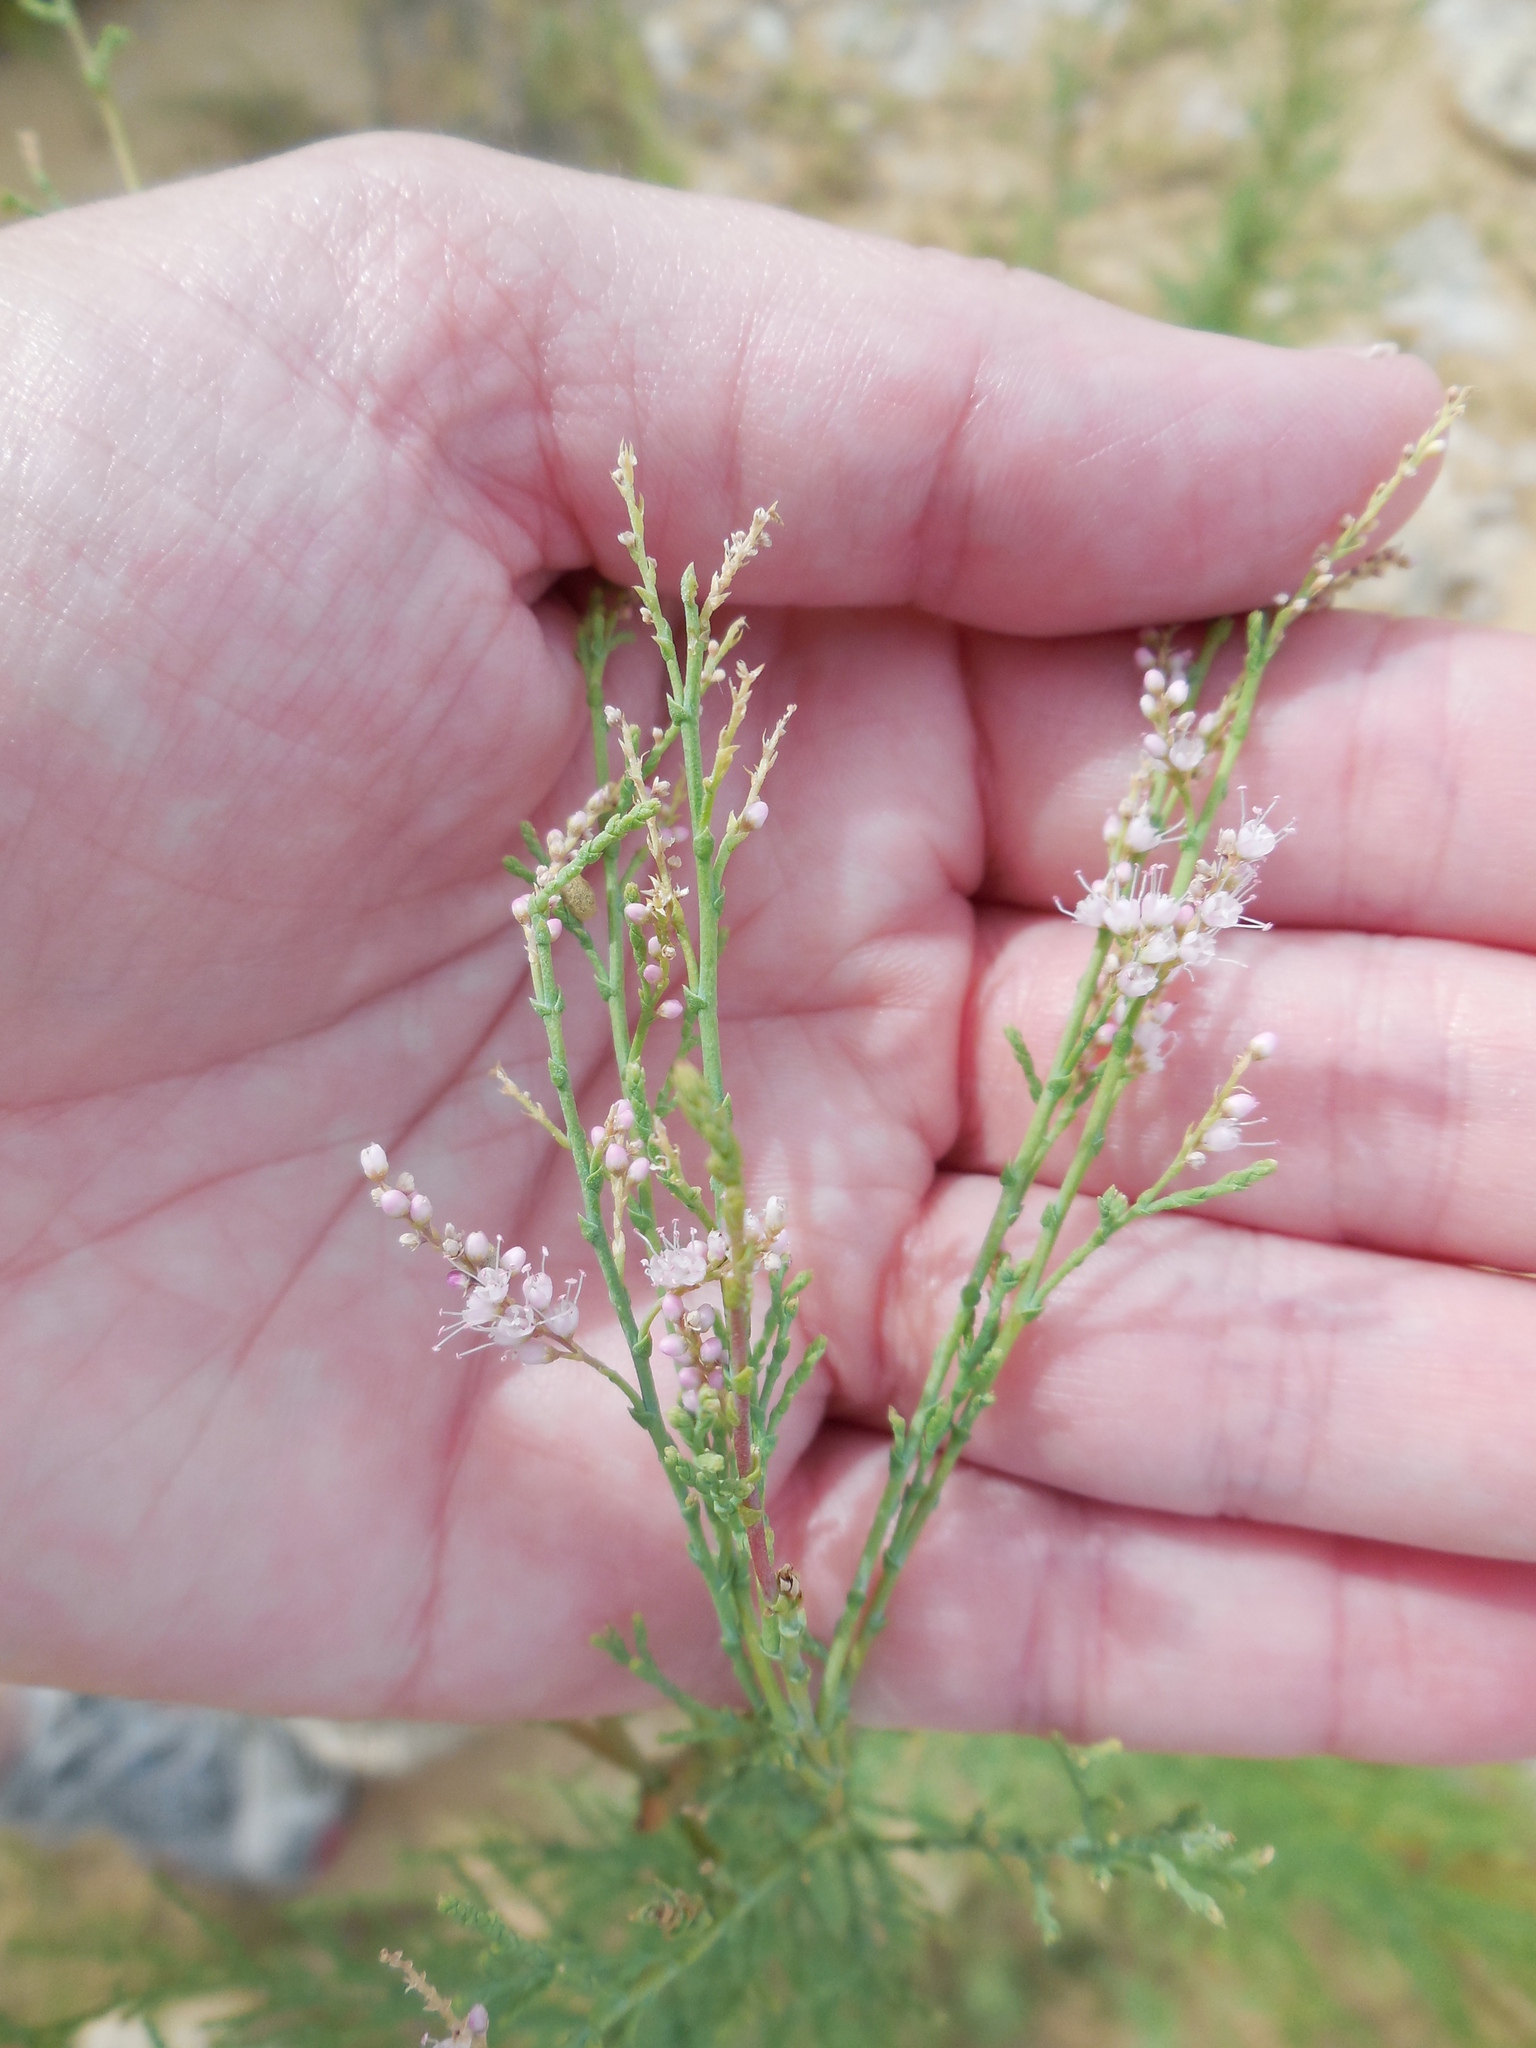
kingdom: Plantae
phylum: Tracheophyta
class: Magnoliopsida
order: Caryophyllales
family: Tamaricaceae
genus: Tamarix
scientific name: Tamarix
